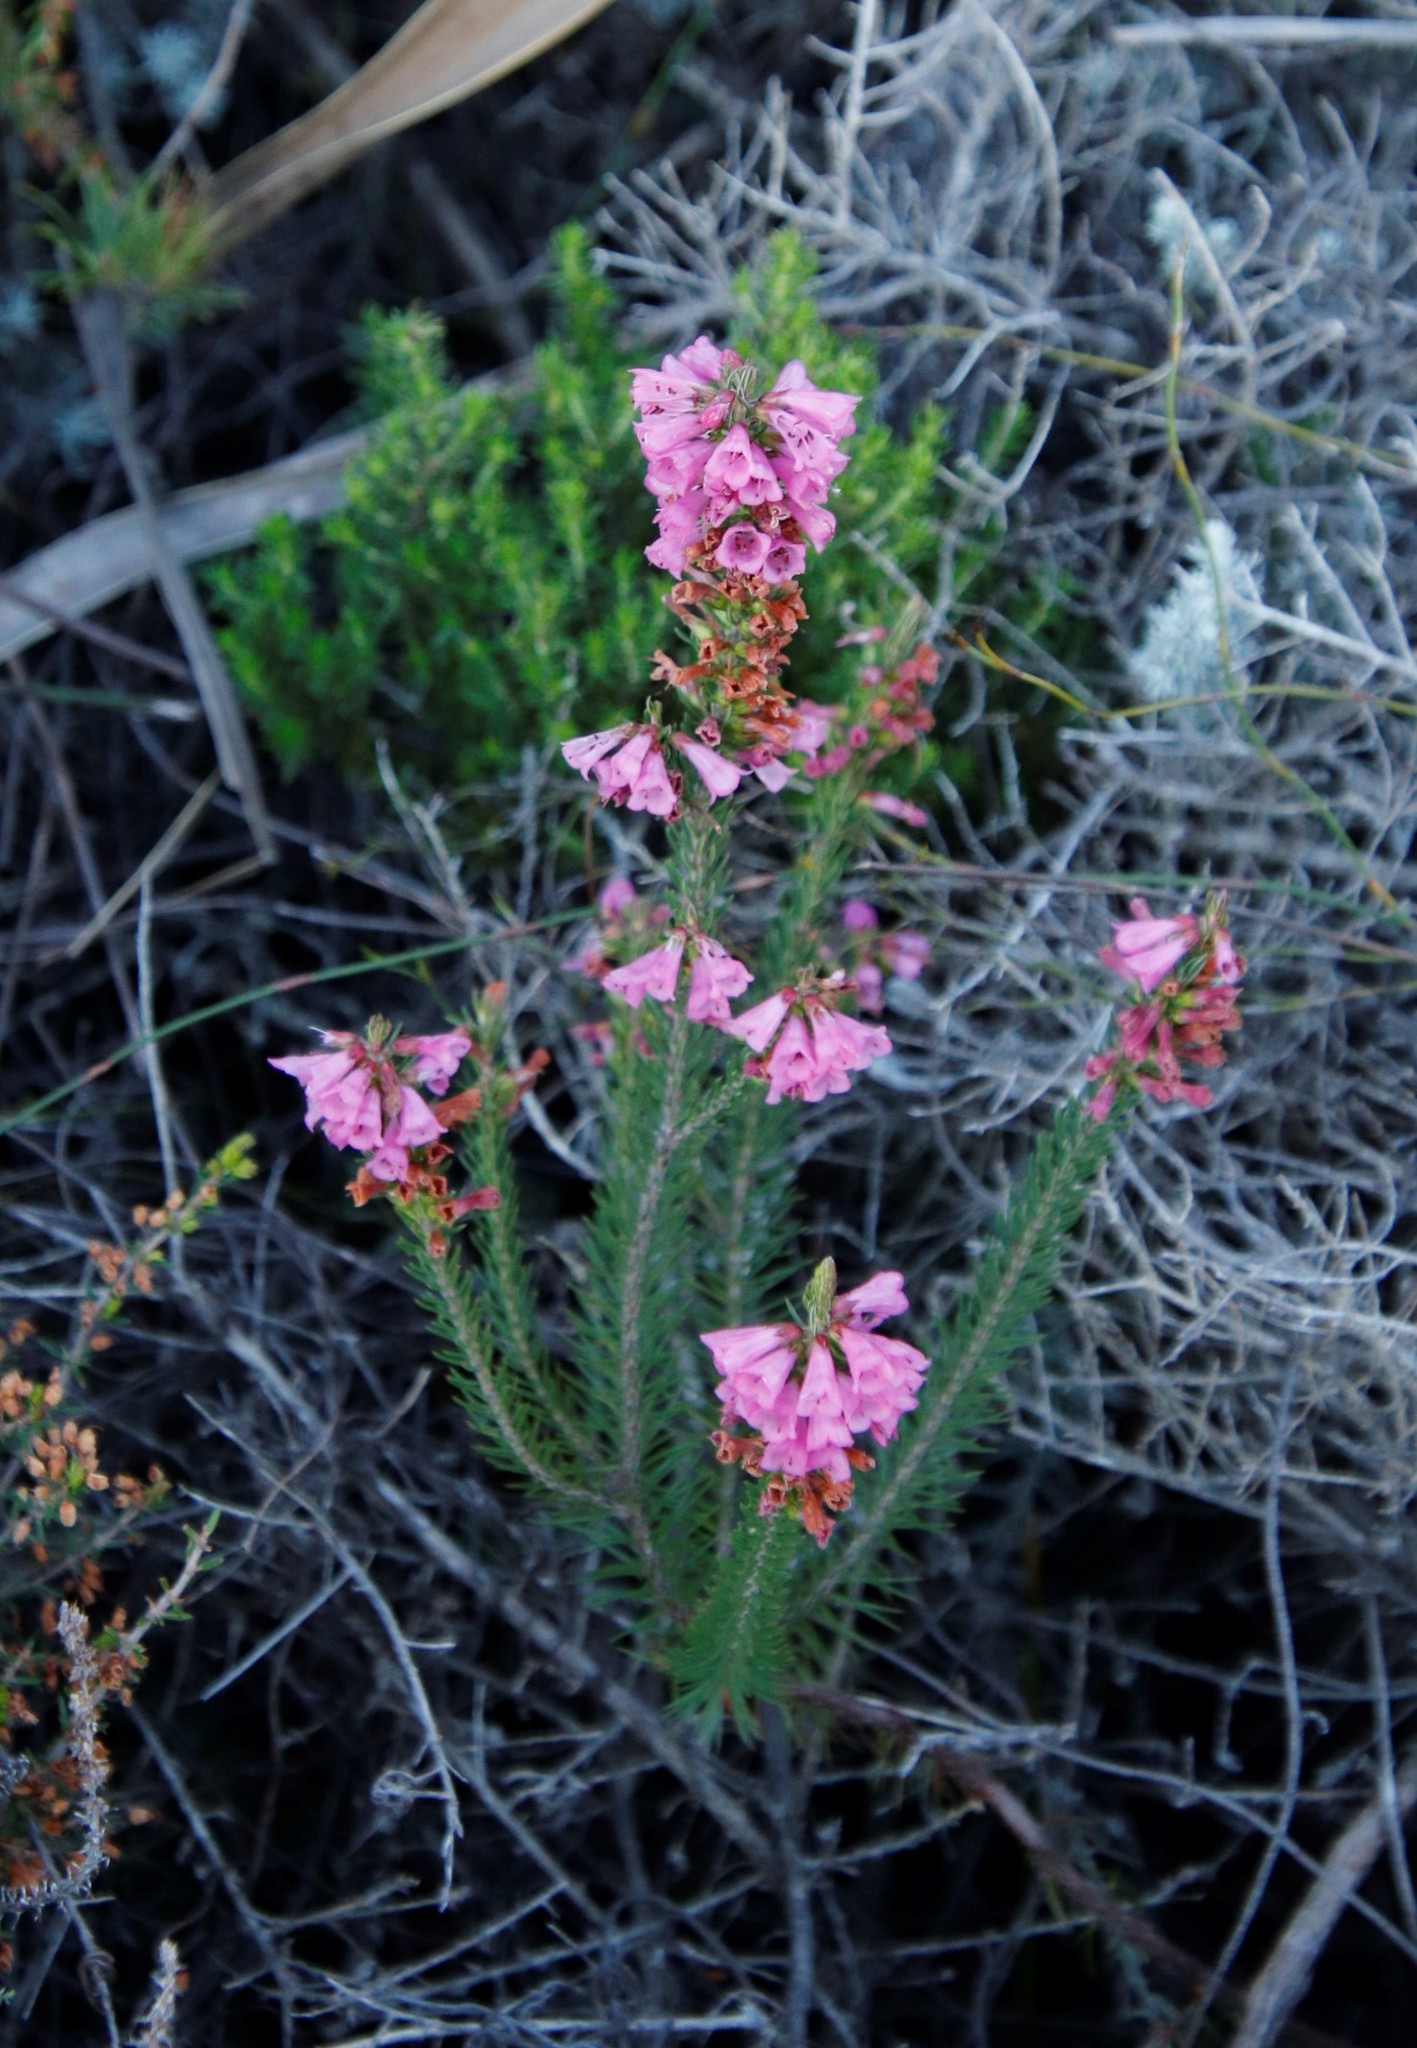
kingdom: Plantae
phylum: Tracheophyta
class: Magnoliopsida
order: Ericales
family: Ericaceae
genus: Erica
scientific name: Erica abietina
